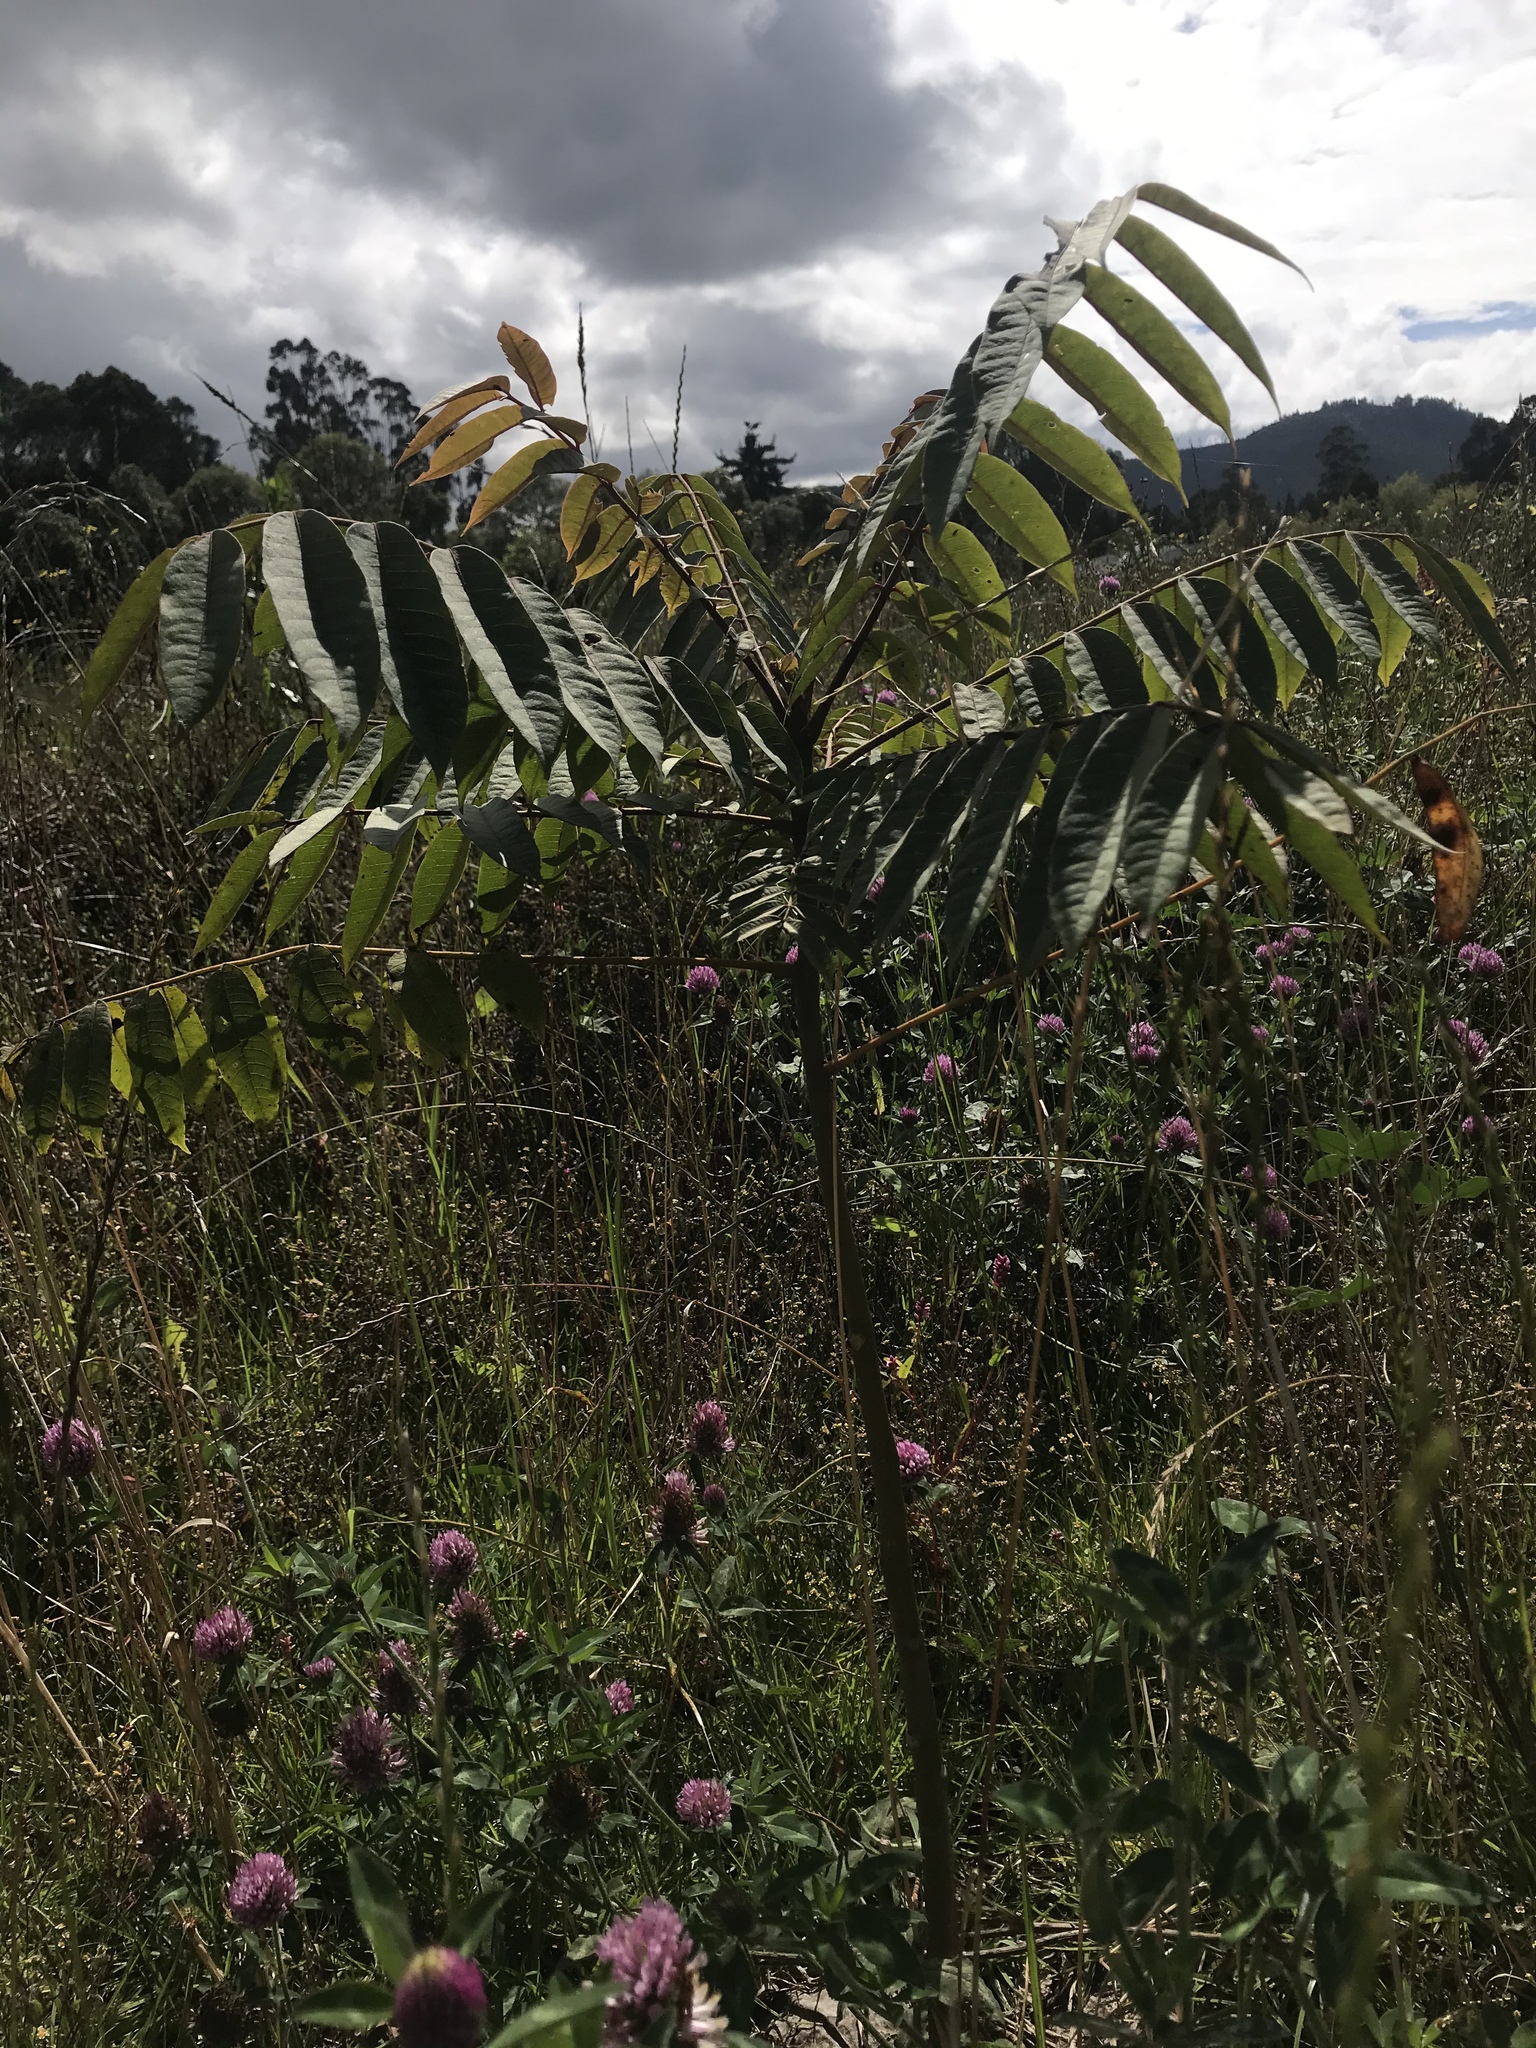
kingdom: Plantae
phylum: Tracheophyta
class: Magnoliopsida
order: Sapindales
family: Meliaceae
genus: Cedrela
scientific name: Cedrela montana
